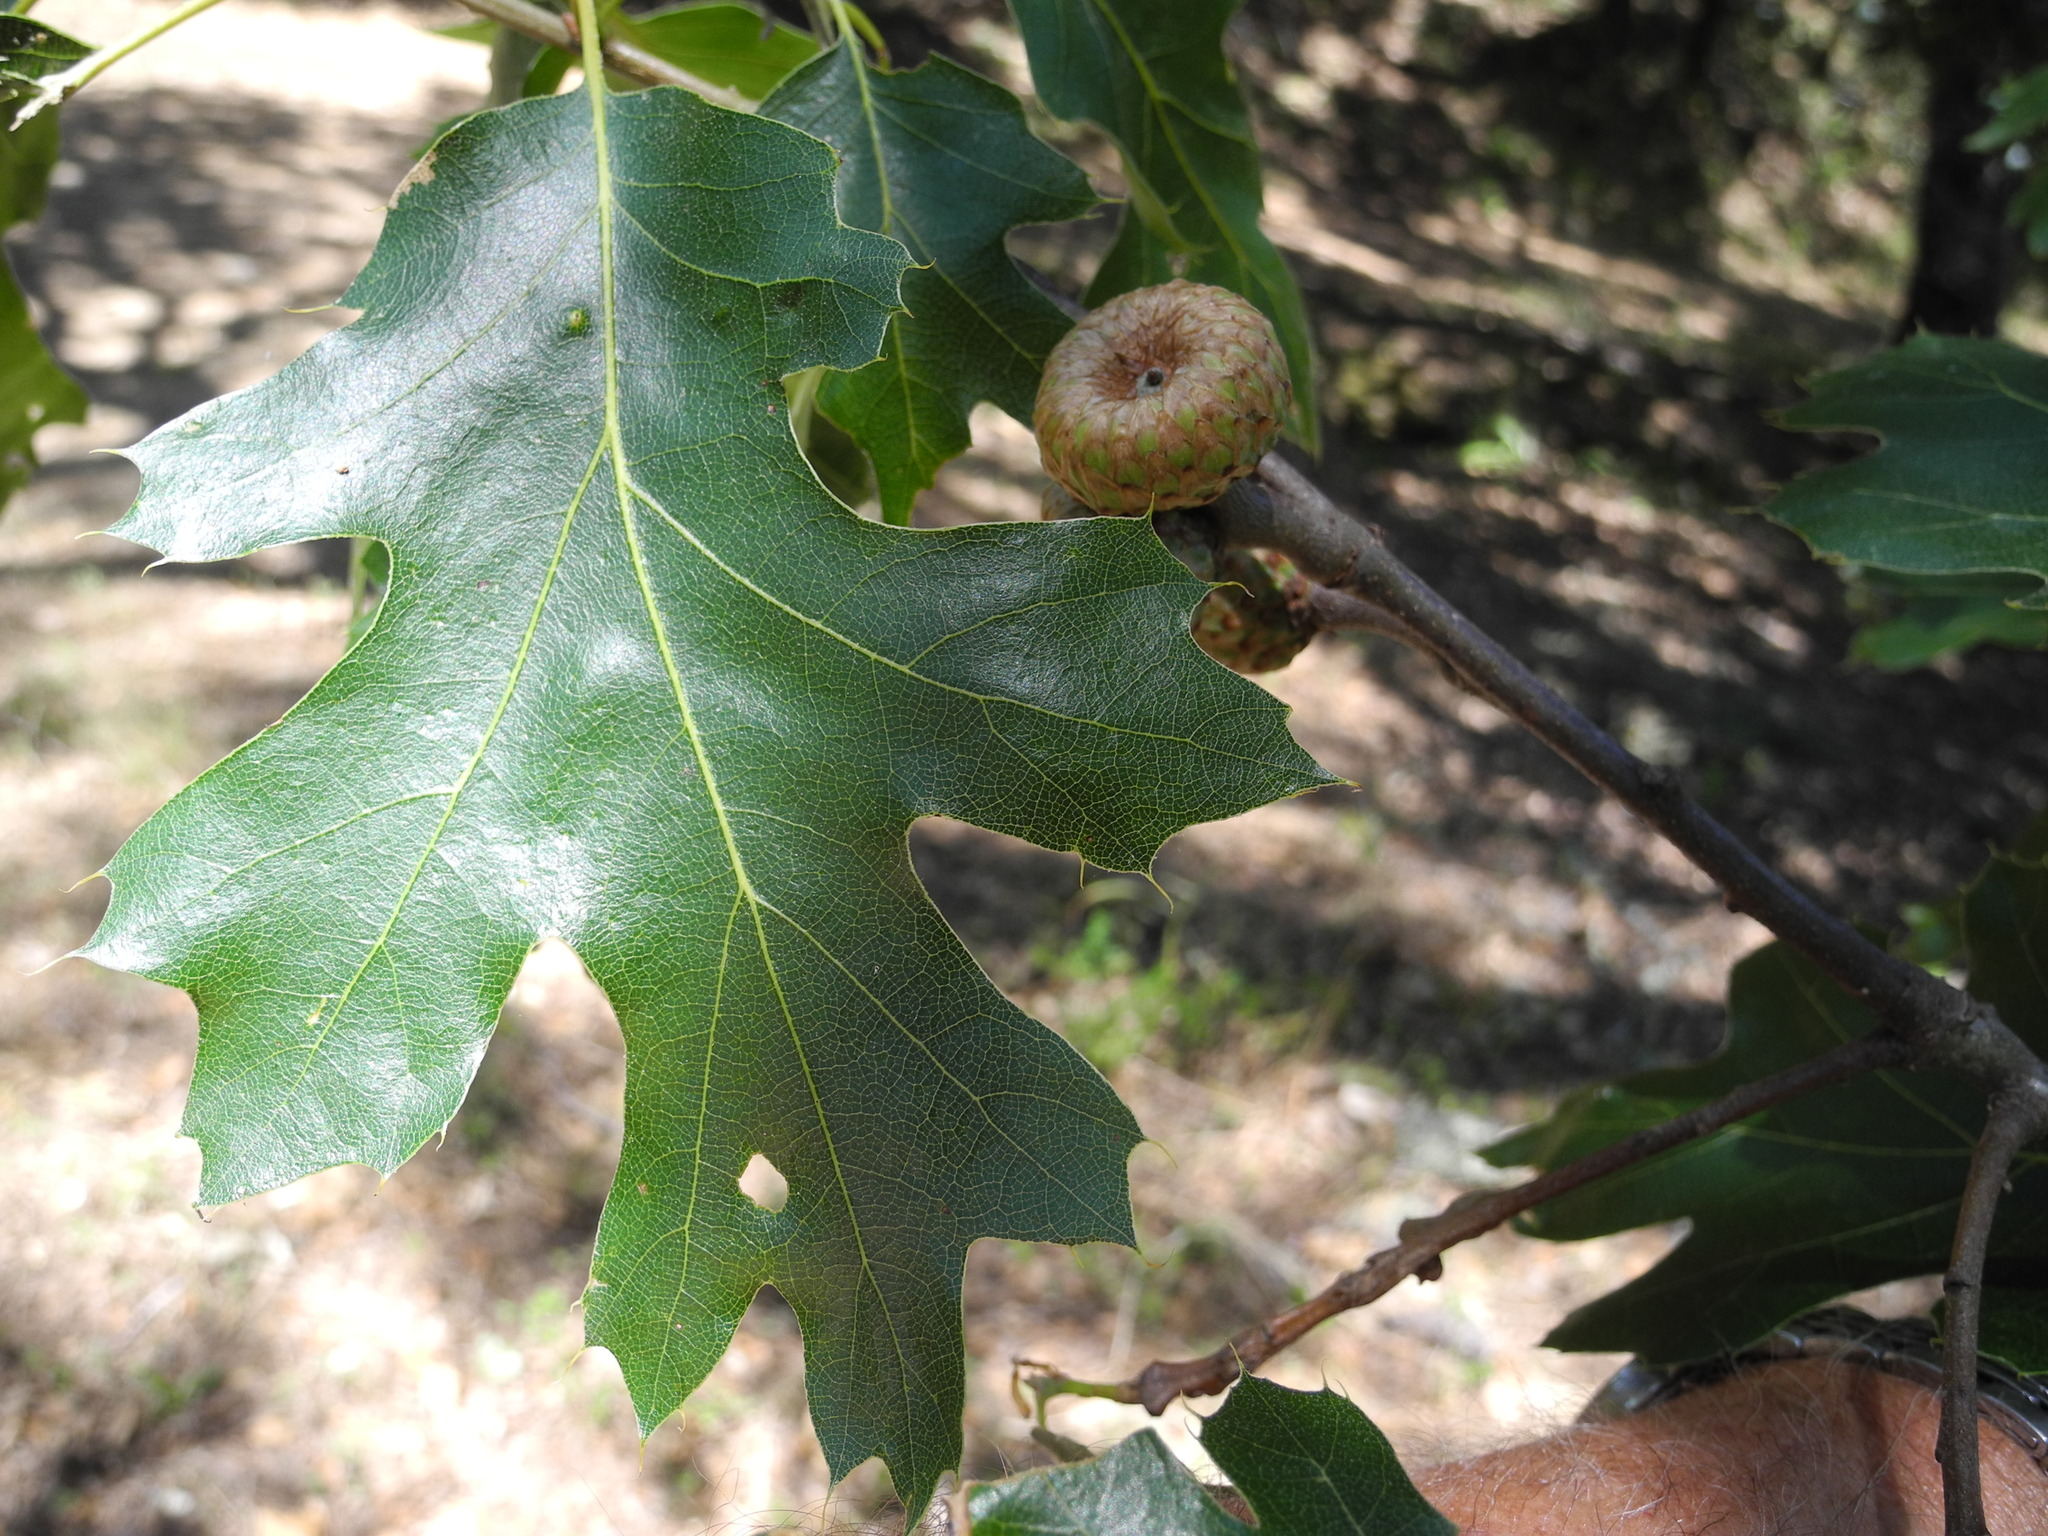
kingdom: Plantae
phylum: Tracheophyta
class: Magnoliopsida
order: Fagales
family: Fagaceae
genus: Quercus
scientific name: Quercus kelloggii
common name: California black oak
